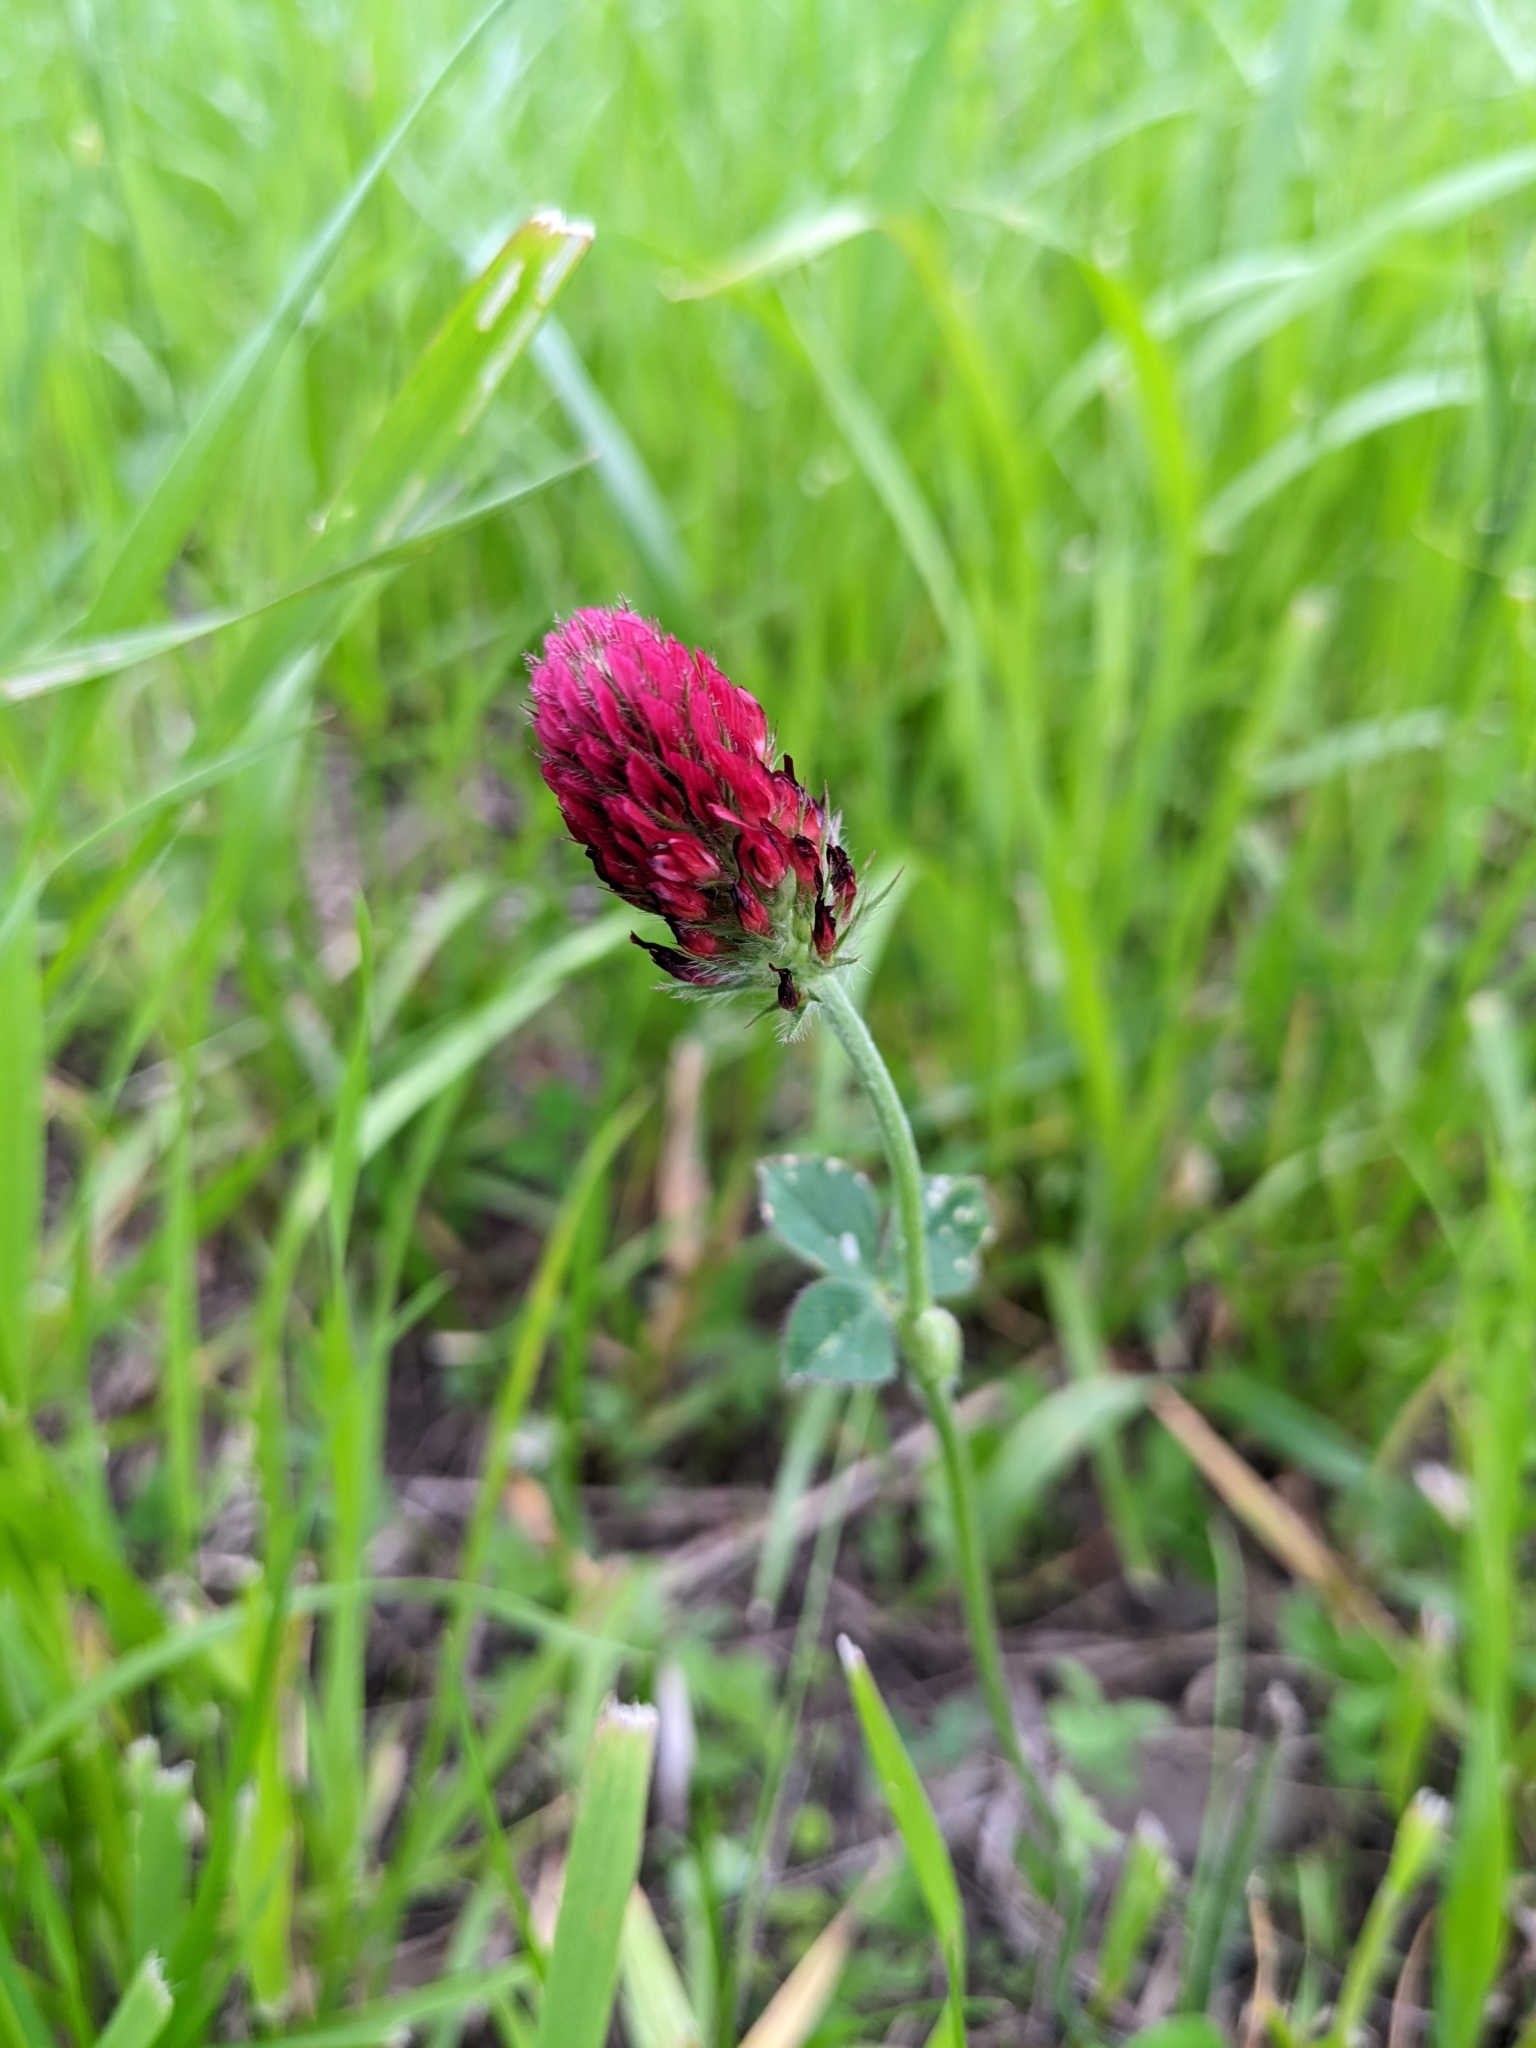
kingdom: Plantae
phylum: Tracheophyta
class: Magnoliopsida
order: Fabales
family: Fabaceae
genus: Trifolium
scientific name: Trifolium incarnatum
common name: Crimson clover
